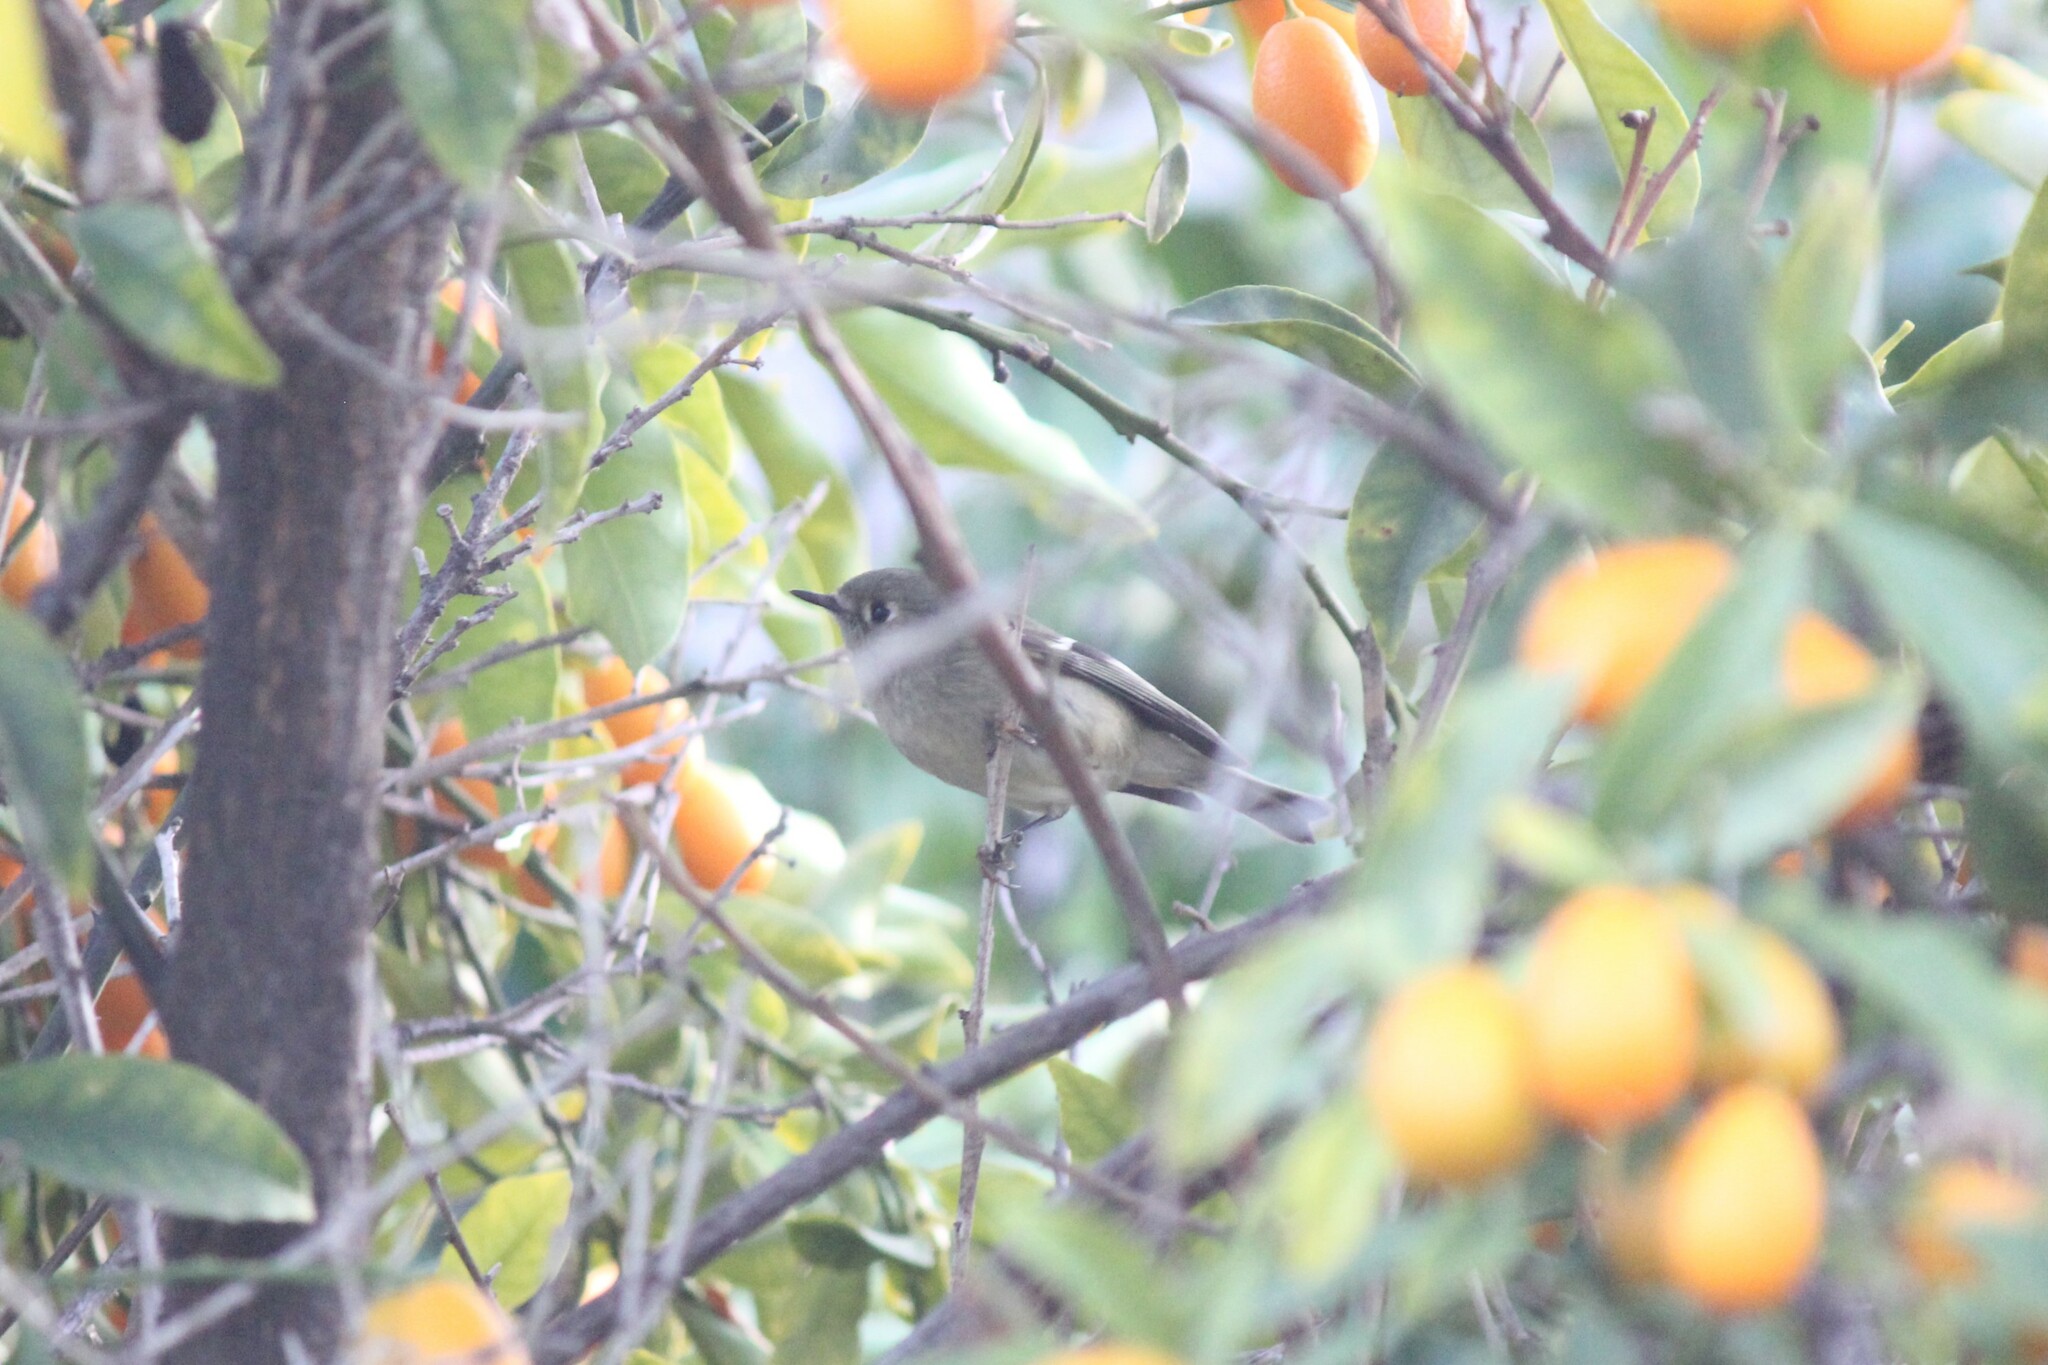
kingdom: Animalia
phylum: Chordata
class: Aves
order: Passeriformes
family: Regulidae
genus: Regulus
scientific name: Regulus calendula
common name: Ruby-crowned kinglet
